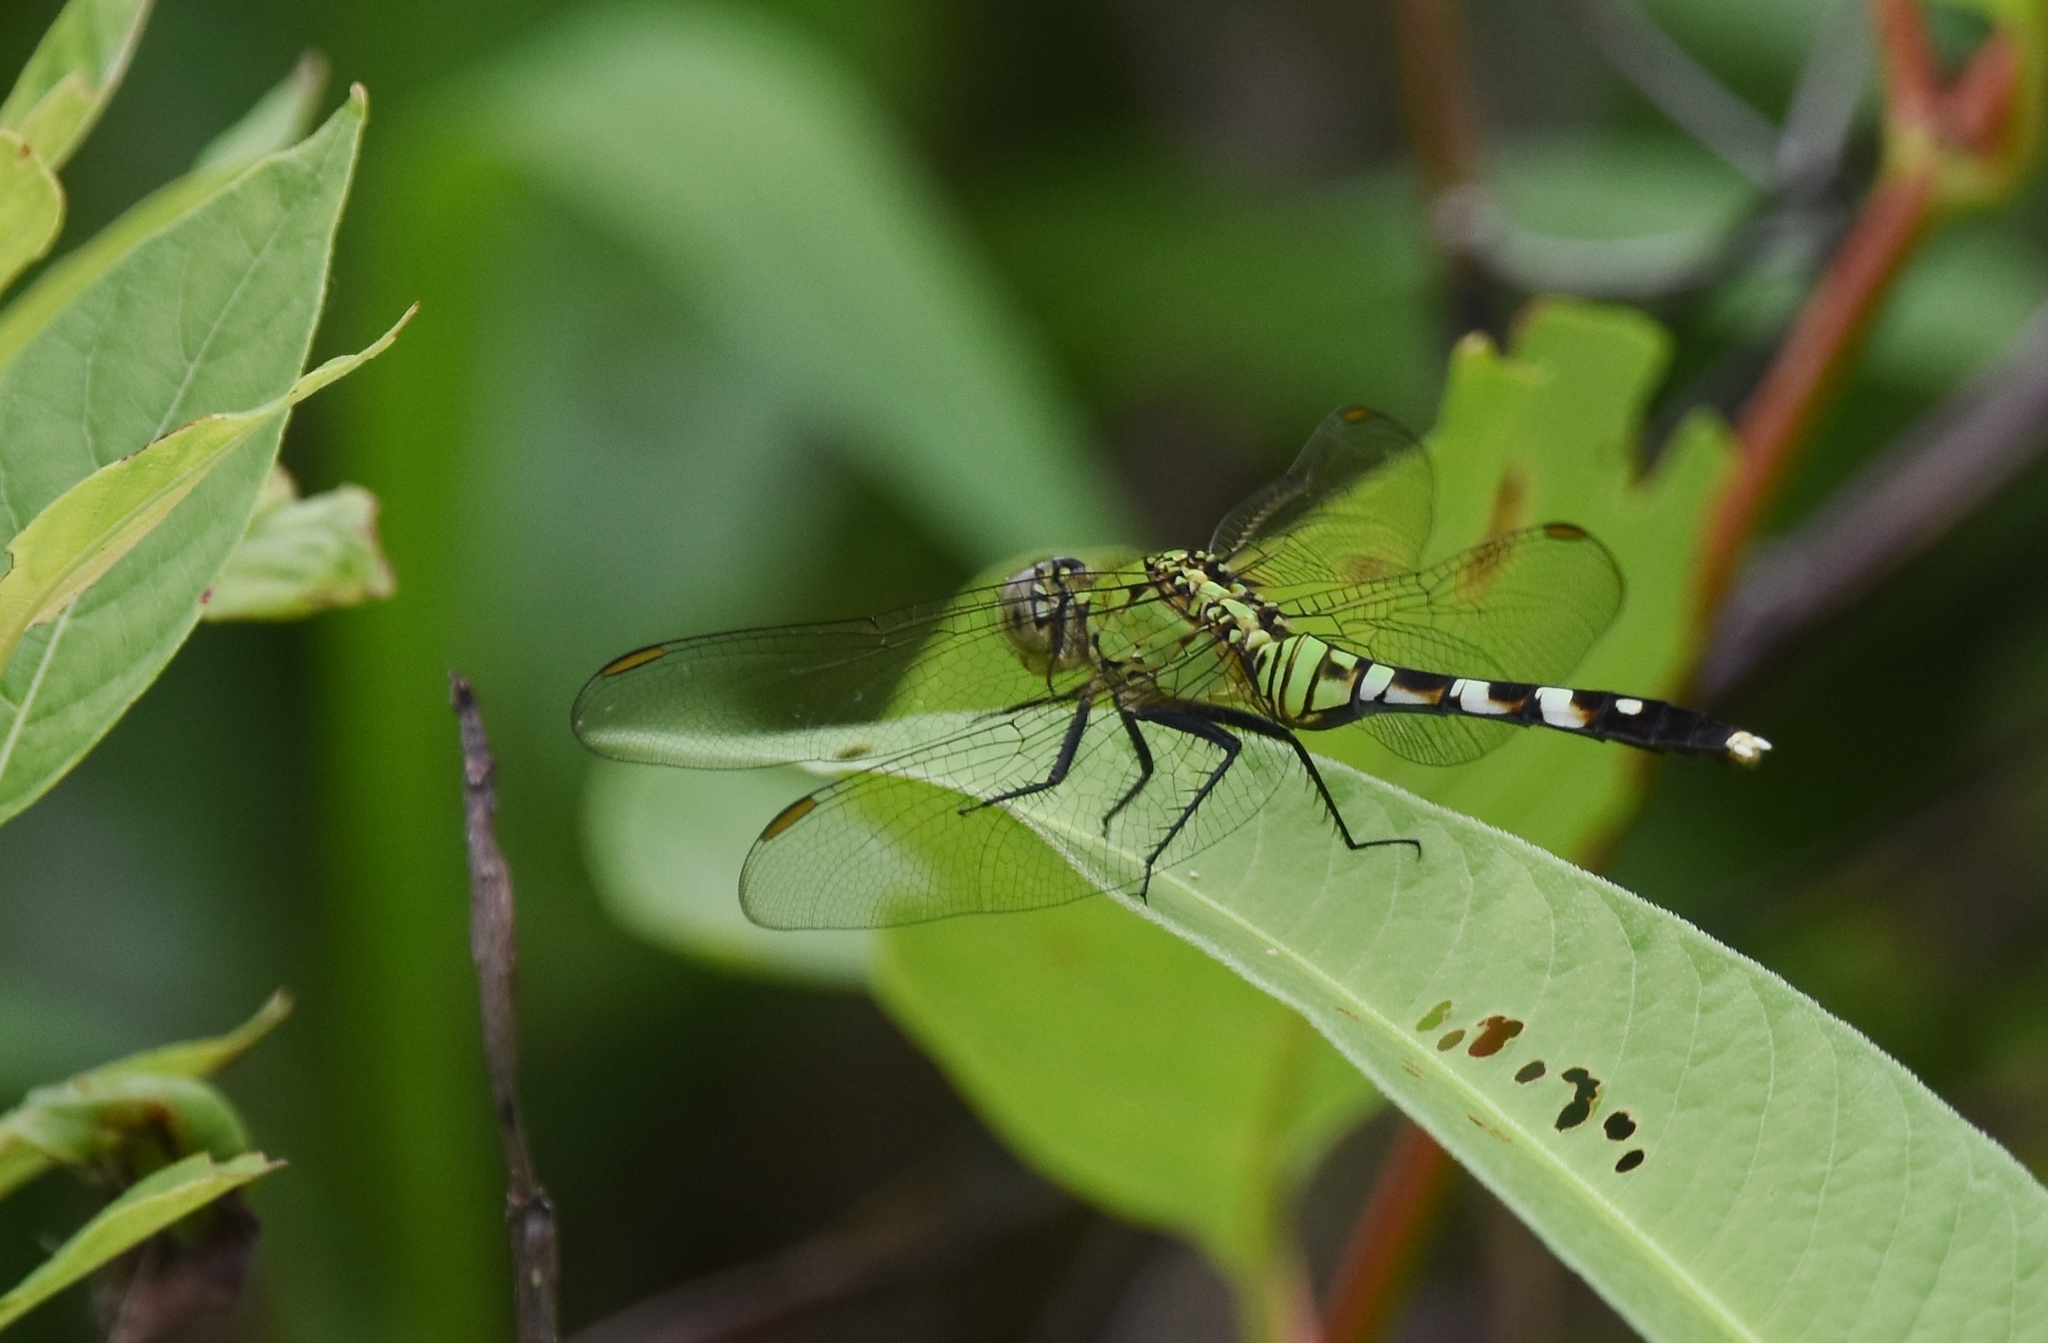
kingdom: Animalia
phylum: Arthropoda
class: Insecta
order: Odonata
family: Libellulidae
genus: Erythemis
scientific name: Erythemis simplicicollis
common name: Eastern pondhawk
